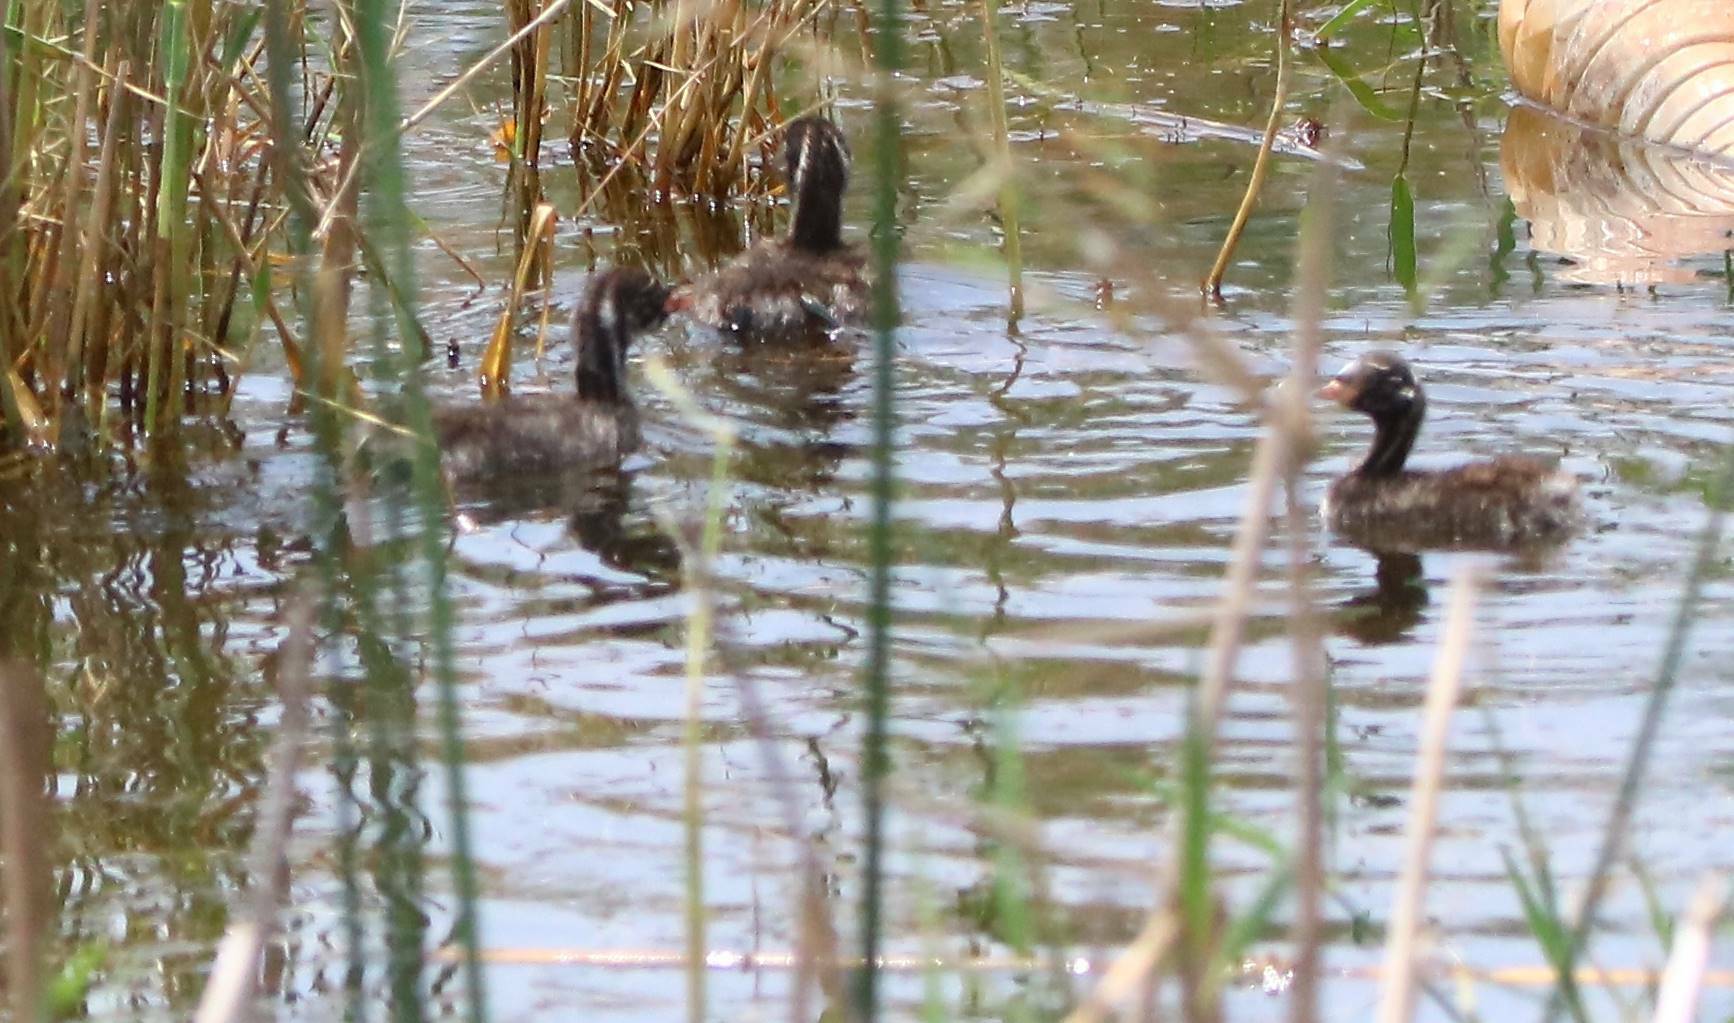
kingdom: Animalia
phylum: Chordata
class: Aves
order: Podicipediformes
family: Podicipedidae
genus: Tachybaptus
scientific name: Tachybaptus ruficollis
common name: Little grebe
